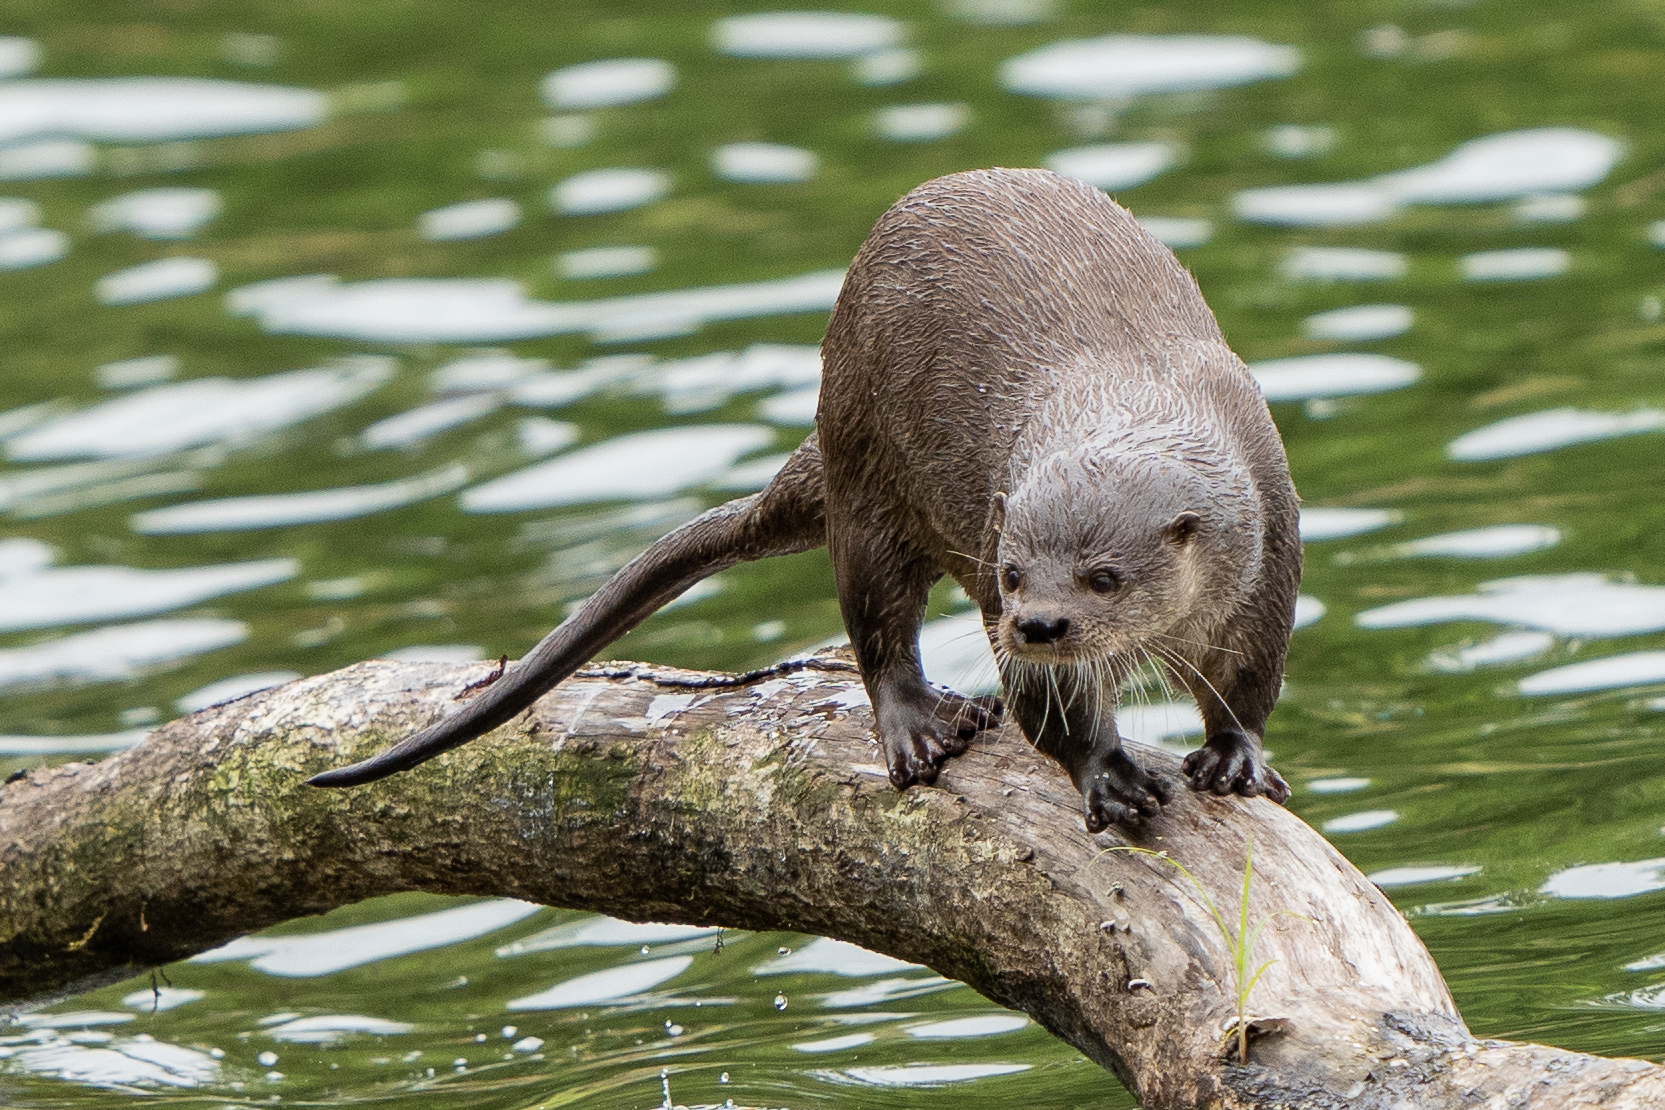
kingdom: Animalia
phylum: Chordata
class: Mammalia
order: Carnivora
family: Mustelidae
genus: Lontra
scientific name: Lontra longicaudis
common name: Neotropical otter
